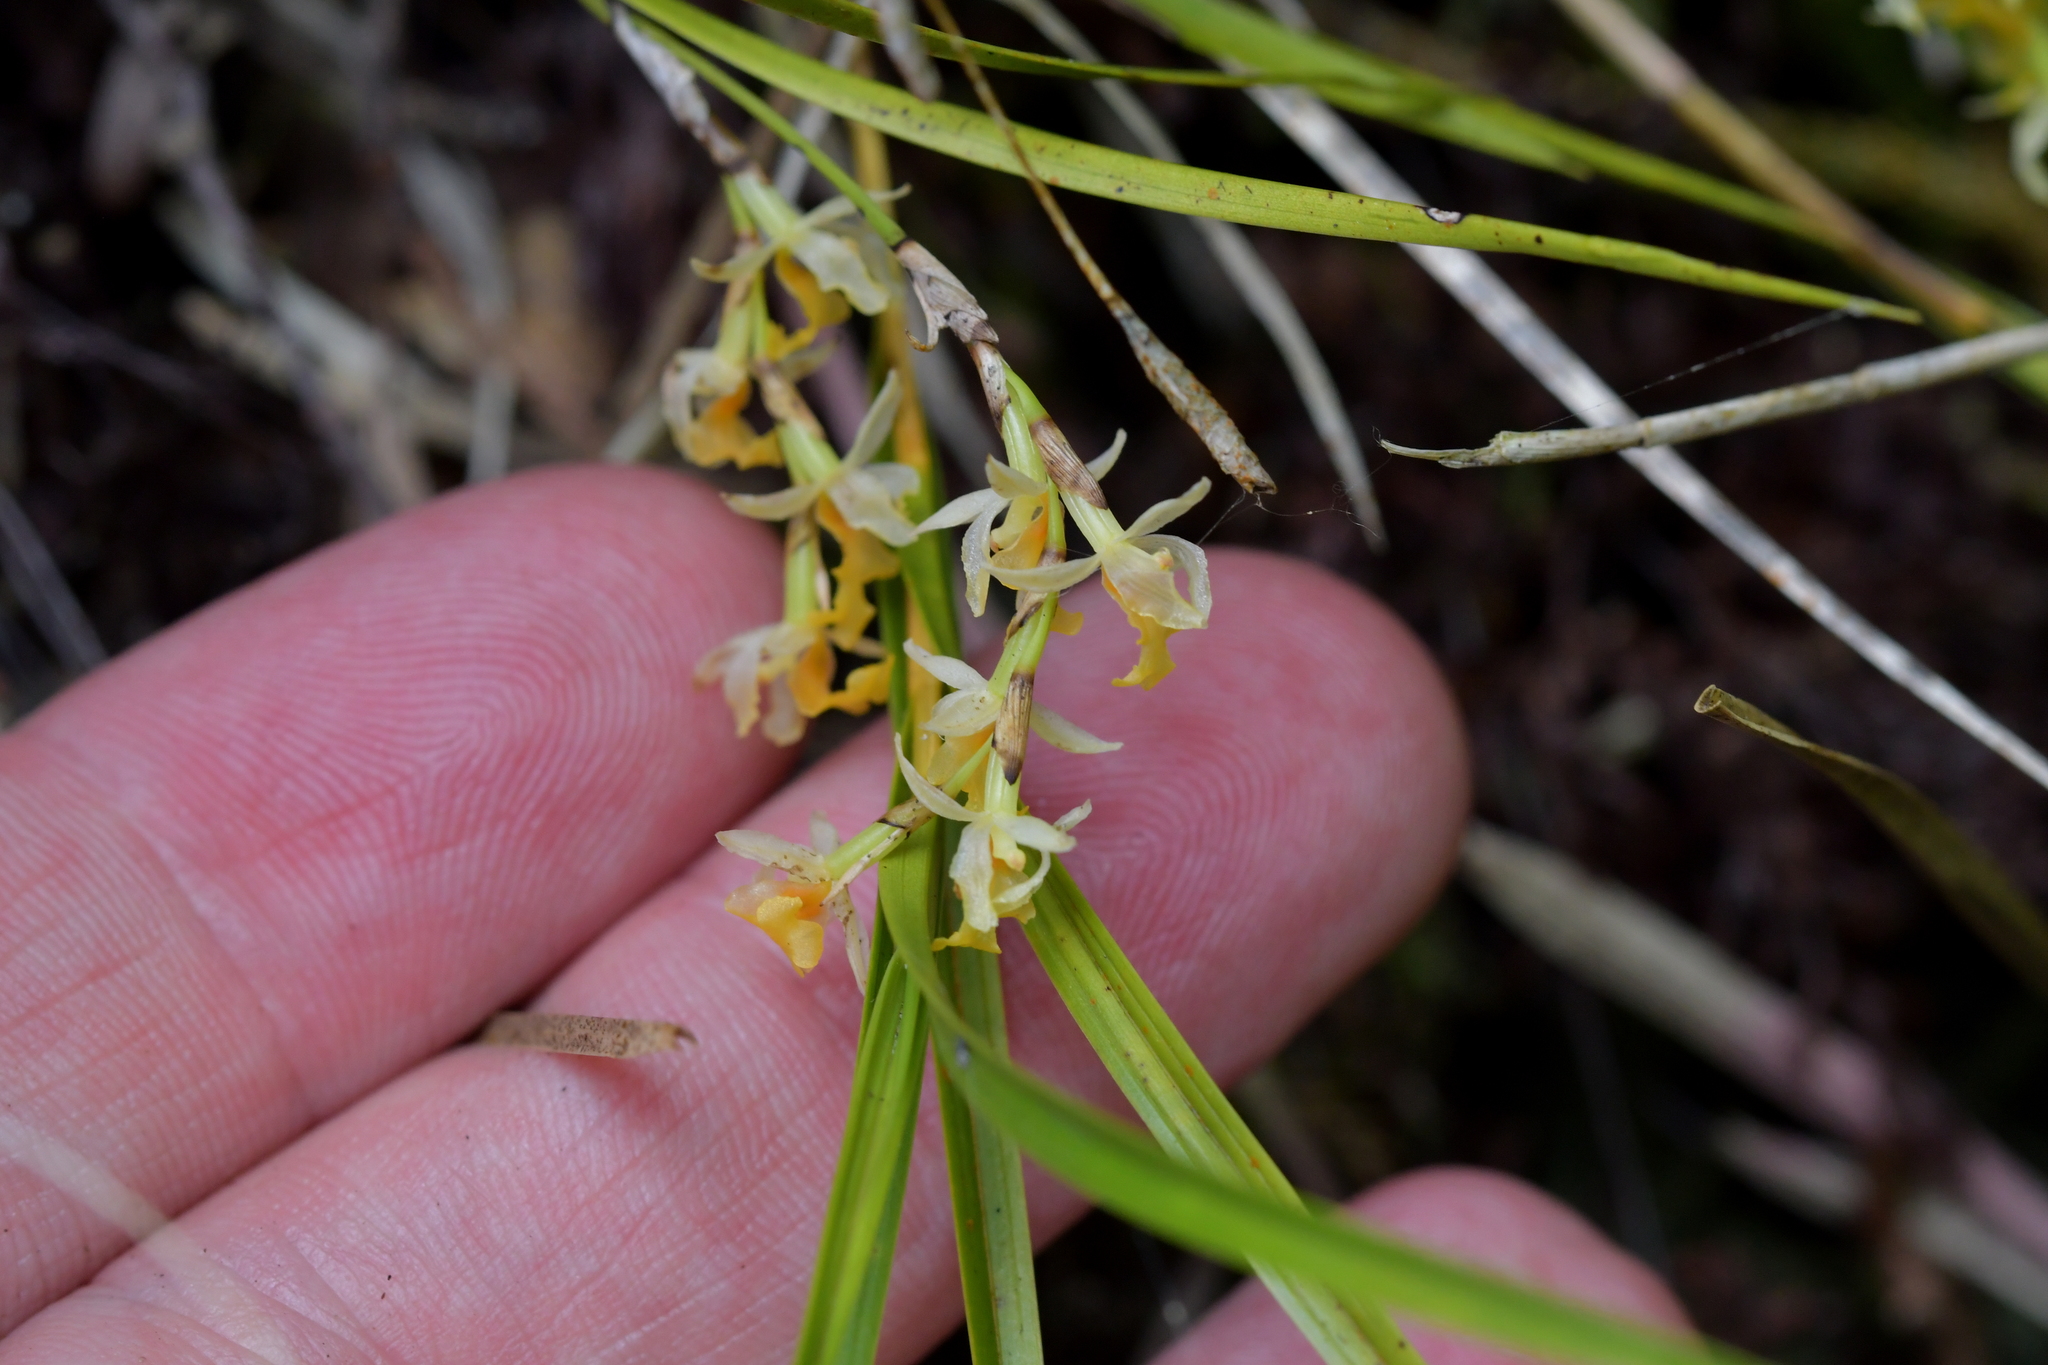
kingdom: Plantae
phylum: Tracheophyta
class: Liliopsida
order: Asparagales
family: Orchidaceae
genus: Earina
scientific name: Earina mucronata
